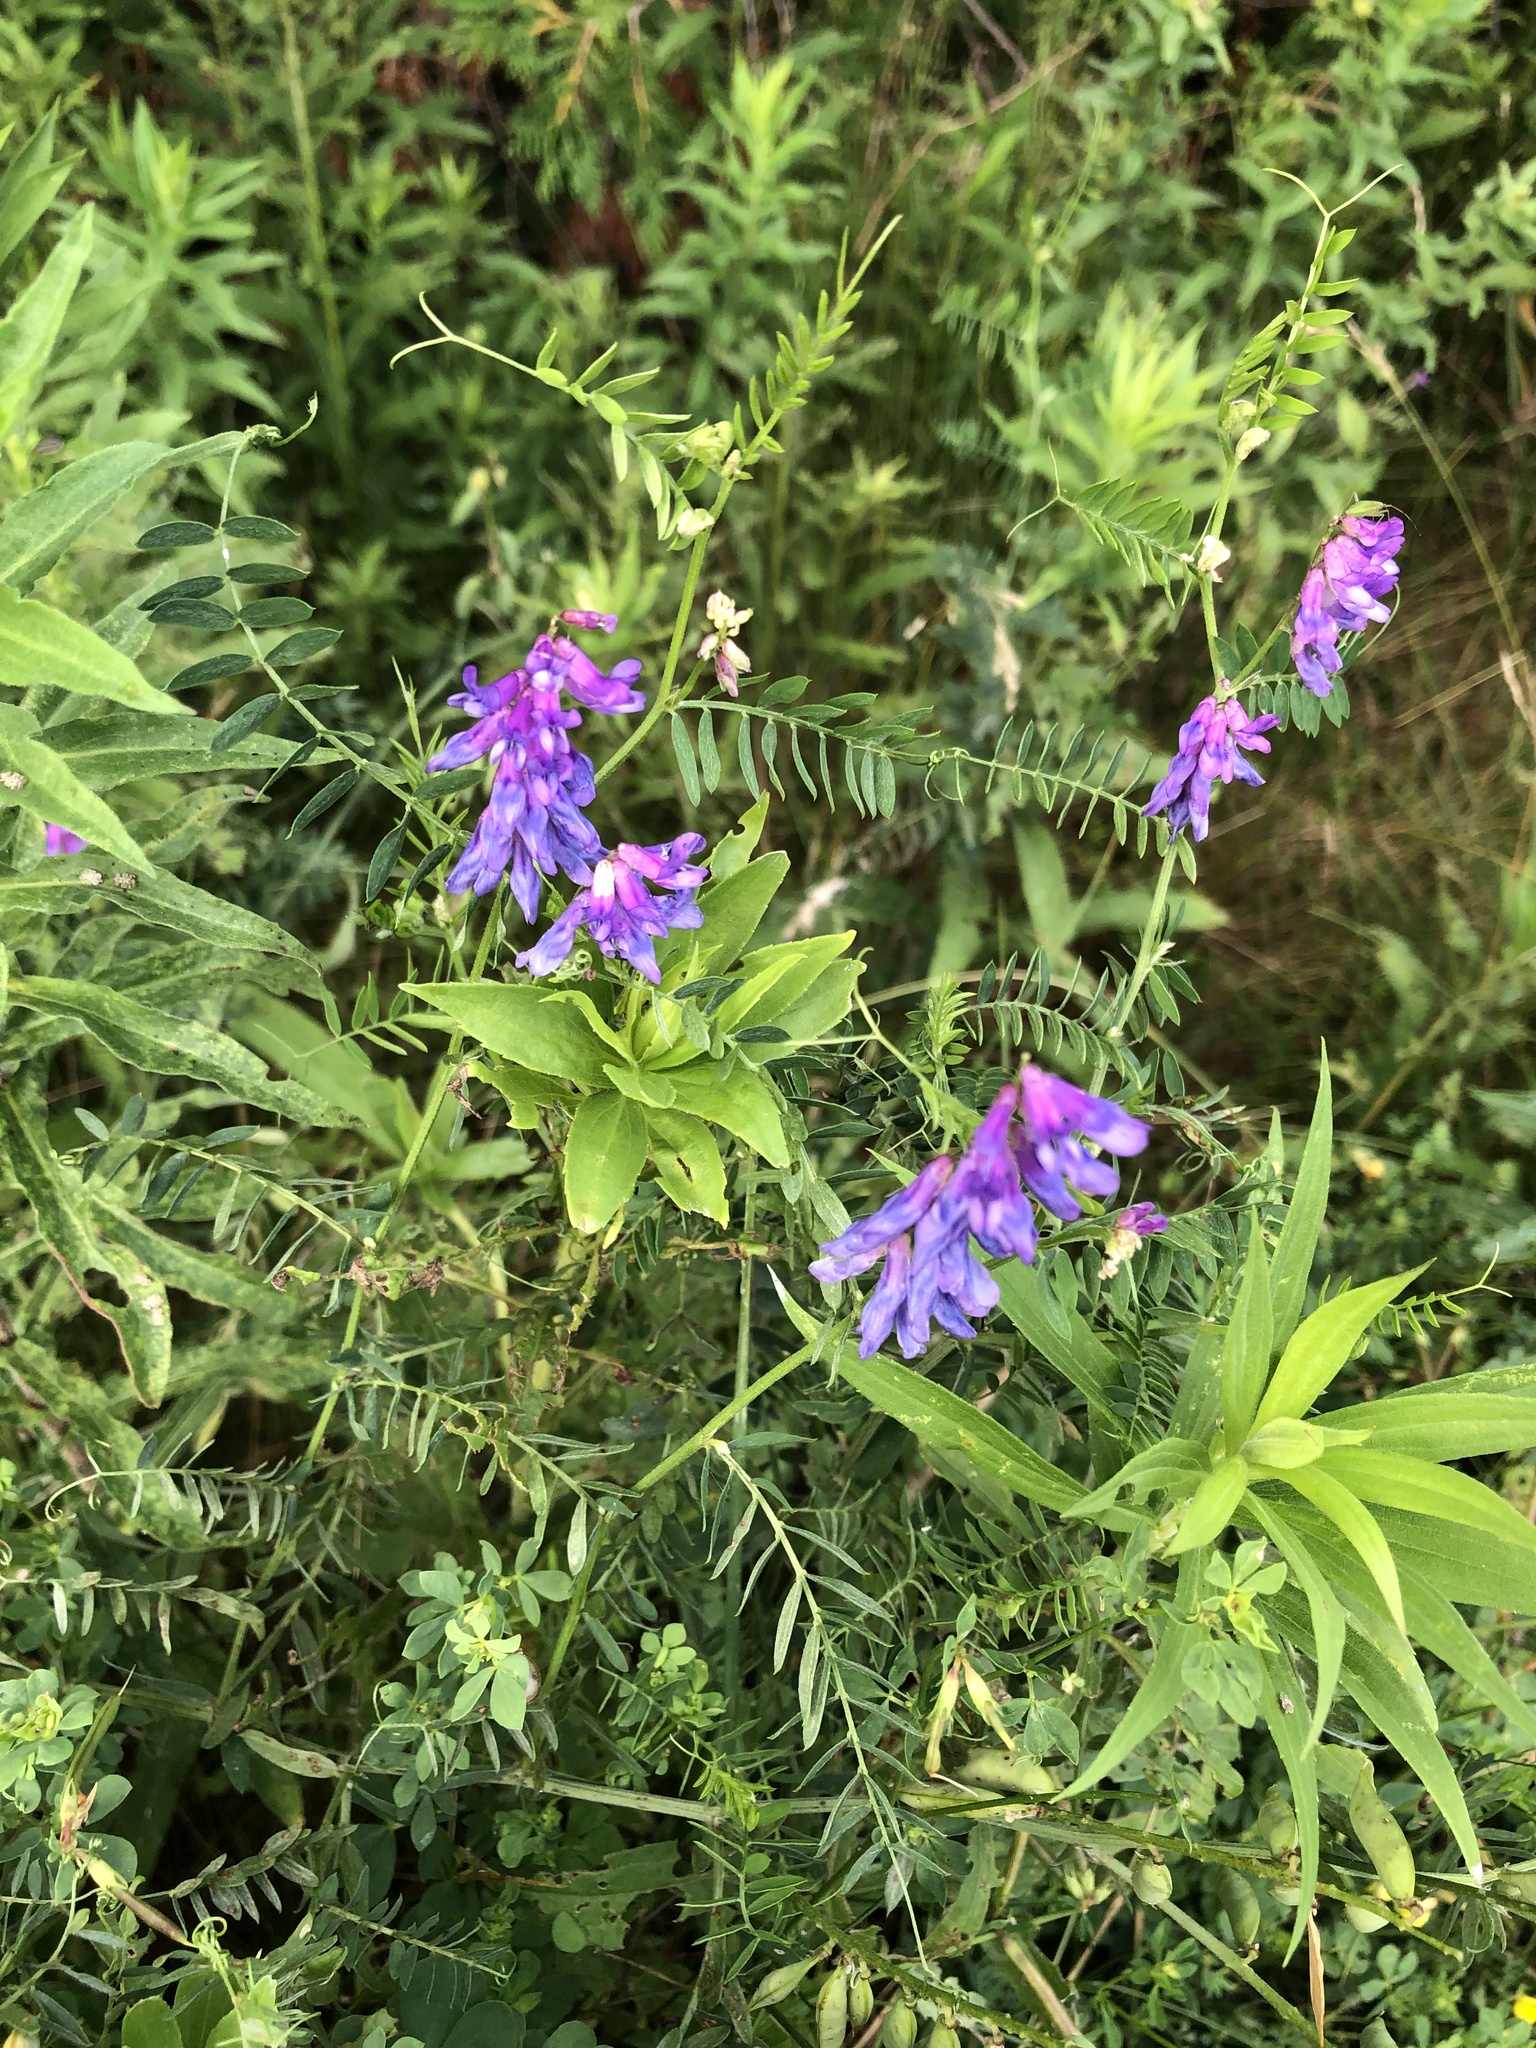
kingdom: Plantae
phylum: Tracheophyta
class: Magnoliopsida
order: Fabales
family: Fabaceae
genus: Vicia
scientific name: Vicia cracca
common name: Bird vetch
